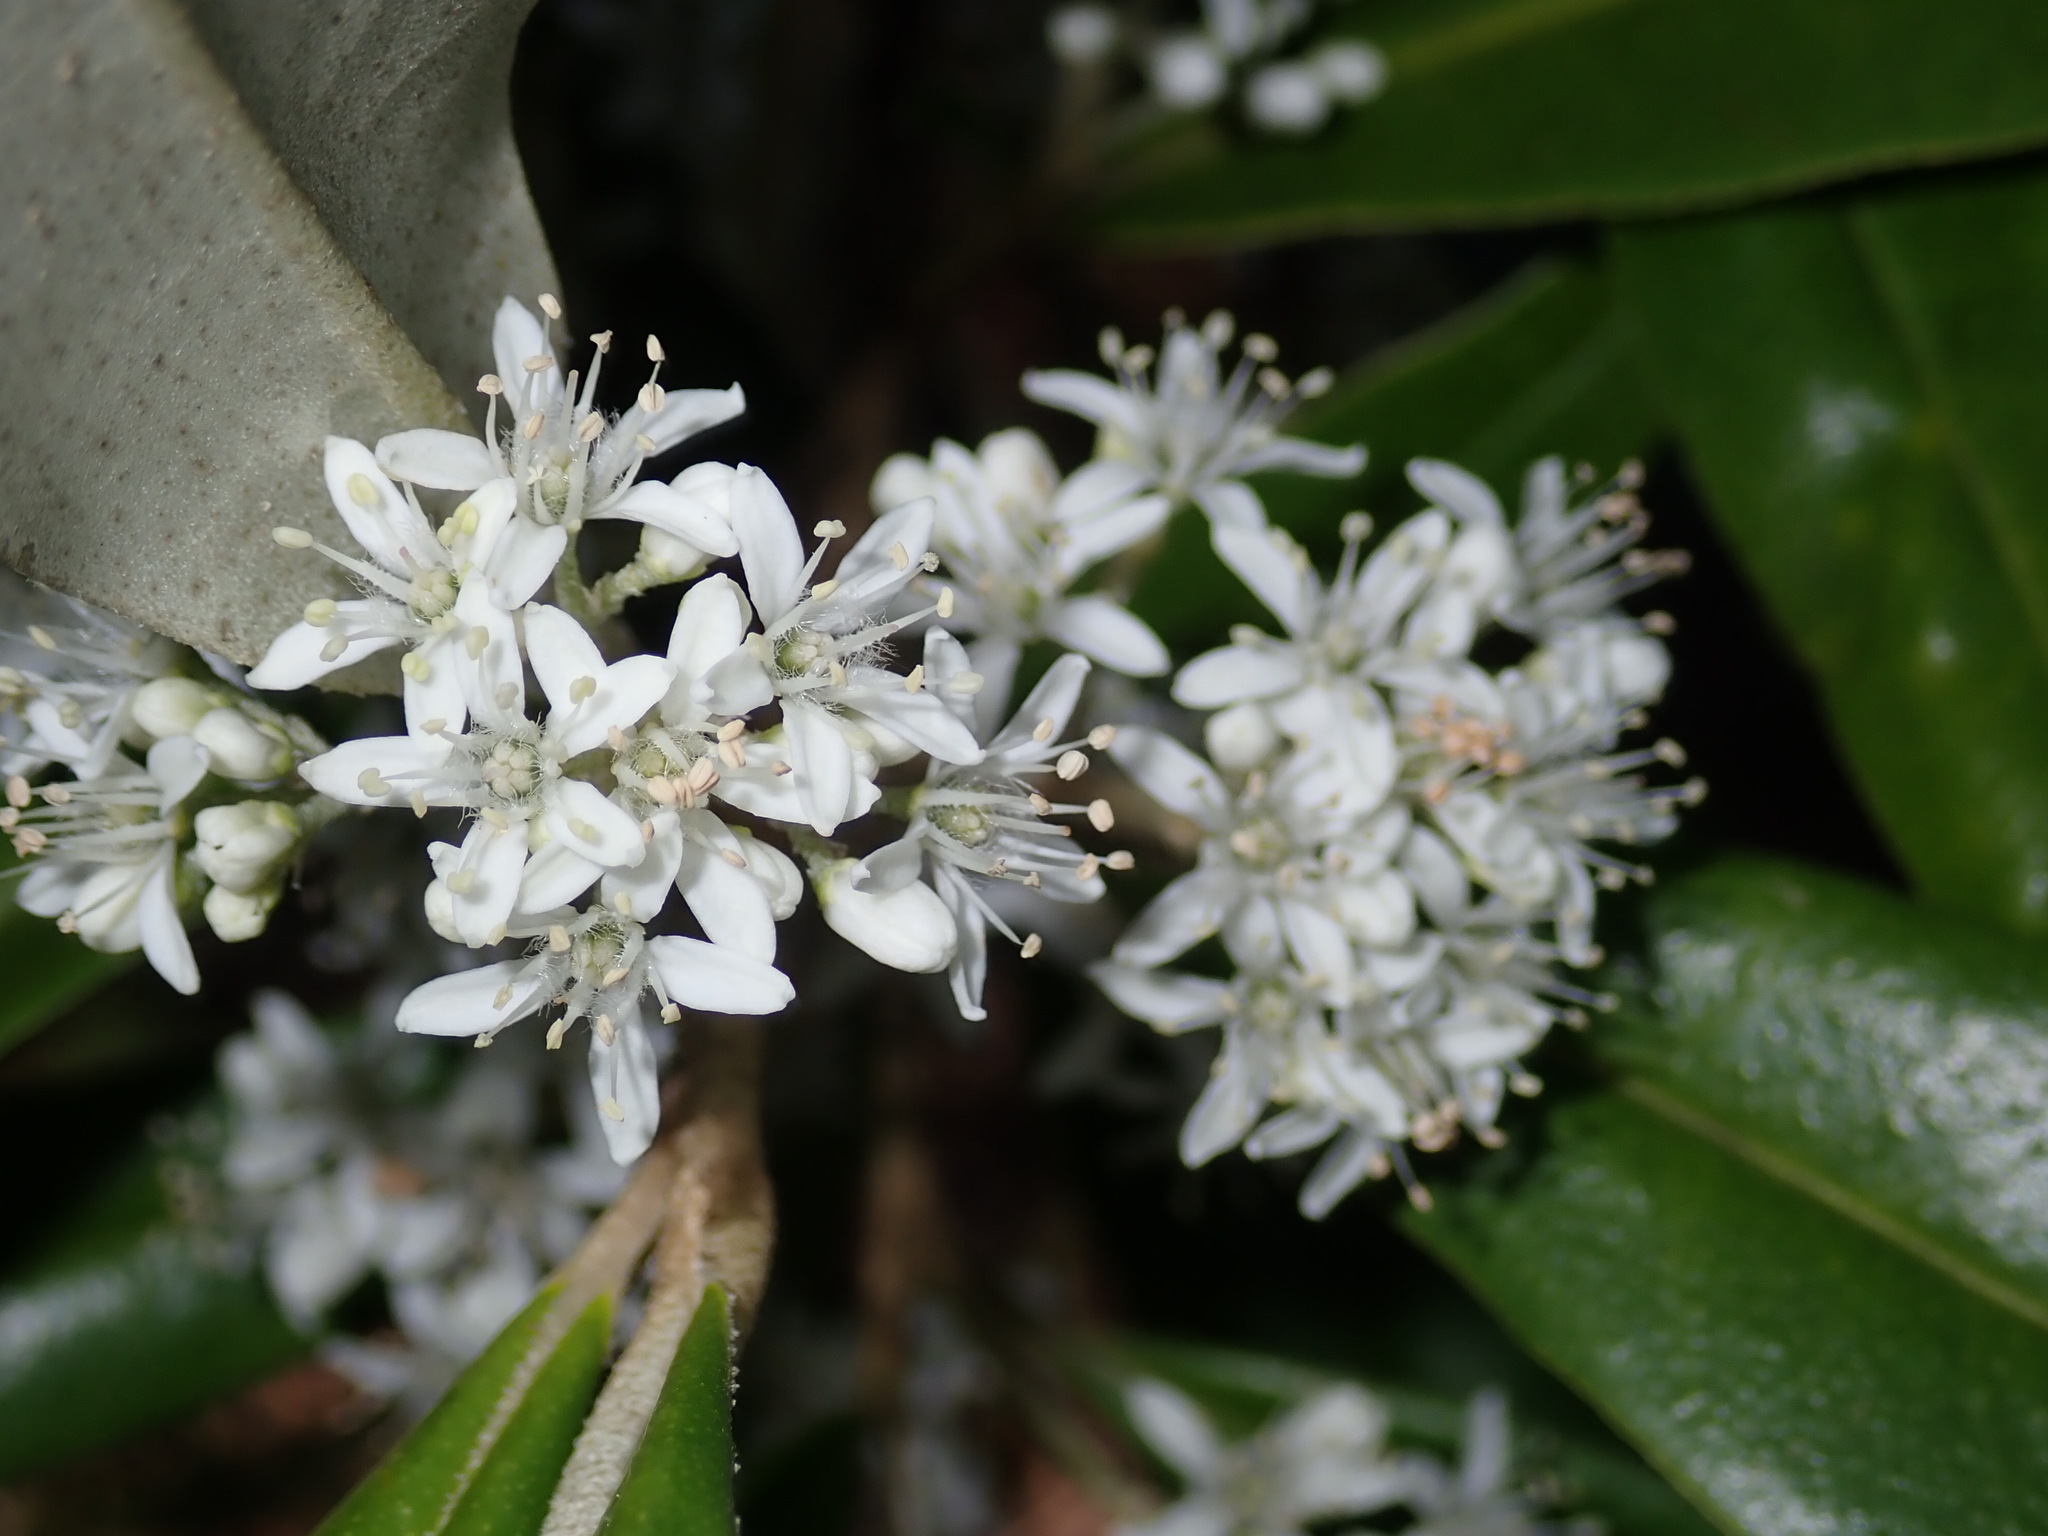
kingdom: Plantae
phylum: Tracheophyta
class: Magnoliopsida
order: Sapindales
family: Rutaceae
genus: Nematolepis
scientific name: Nematolepis squamea
